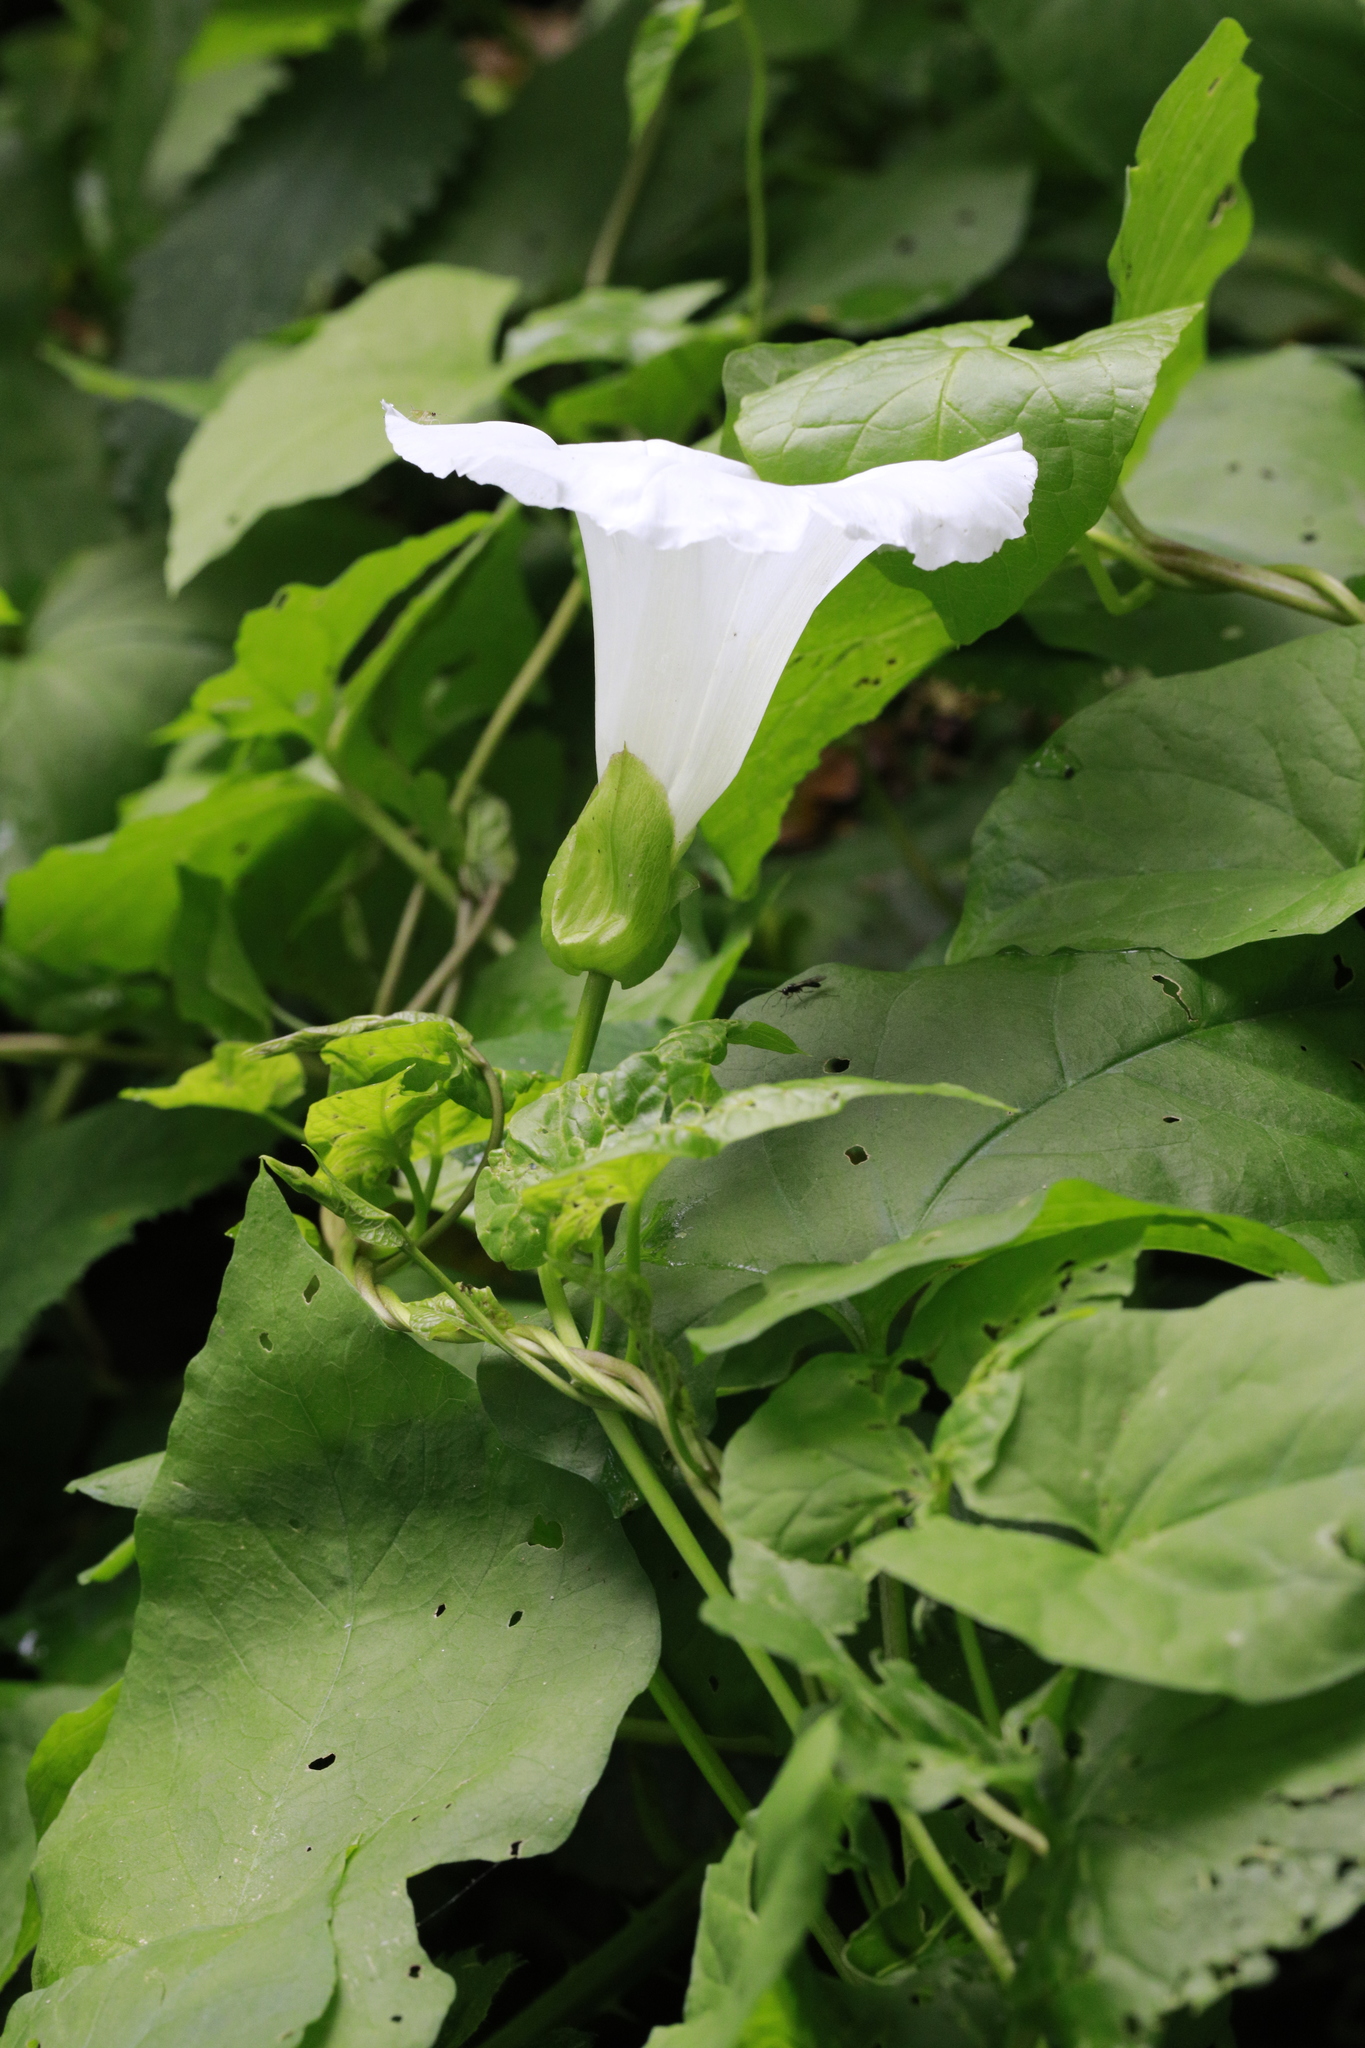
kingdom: Plantae
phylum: Tracheophyta
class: Magnoliopsida
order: Solanales
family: Convolvulaceae
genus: Calystegia
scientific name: Calystegia silvatica
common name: Large bindweed
